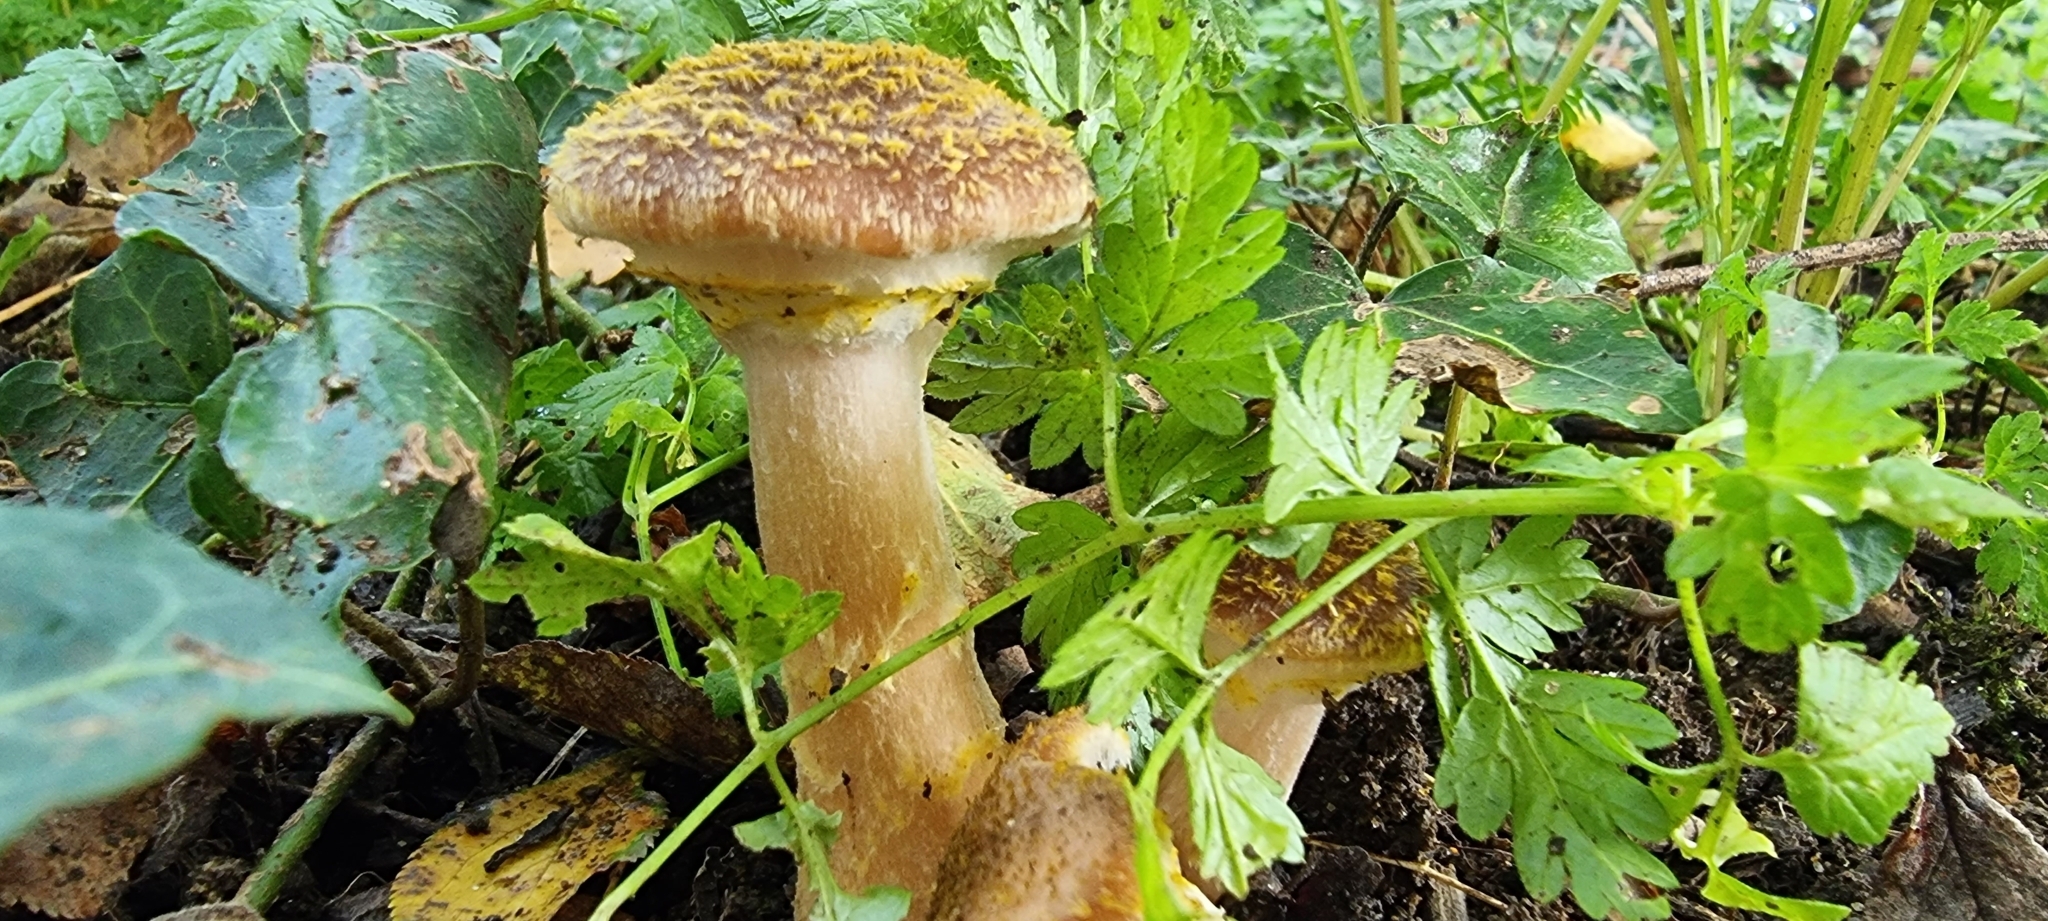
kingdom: Fungi
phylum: Basidiomycota
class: Agaricomycetes
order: Agaricales
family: Physalacriaceae
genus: Armillaria
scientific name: Armillaria gallica
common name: Bulbous honey fungus
